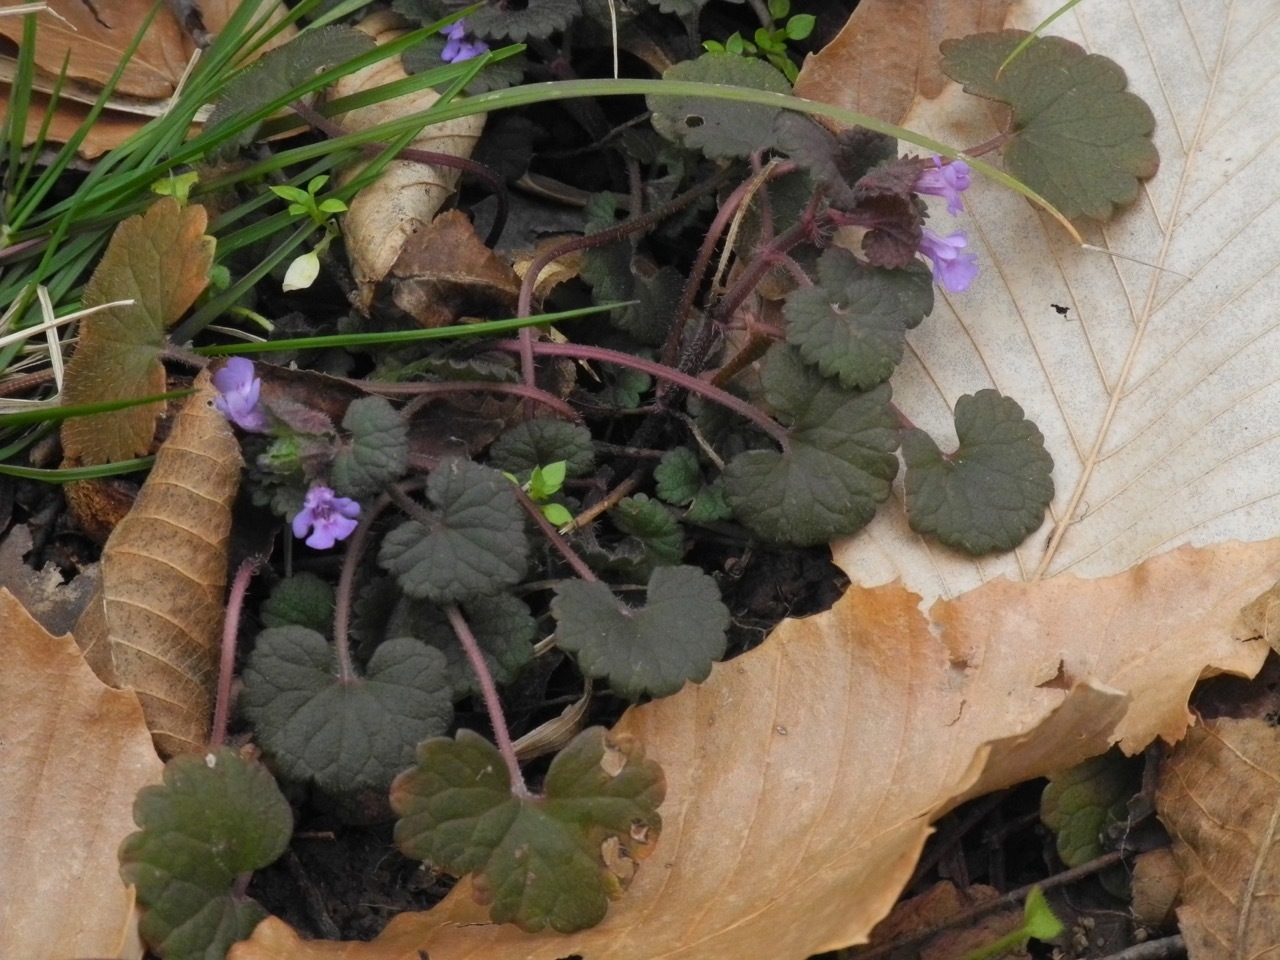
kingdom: Plantae
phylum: Tracheophyta
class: Magnoliopsida
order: Lamiales
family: Lamiaceae
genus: Glechoma
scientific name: Glechoma hederacea
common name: Ground ivy
